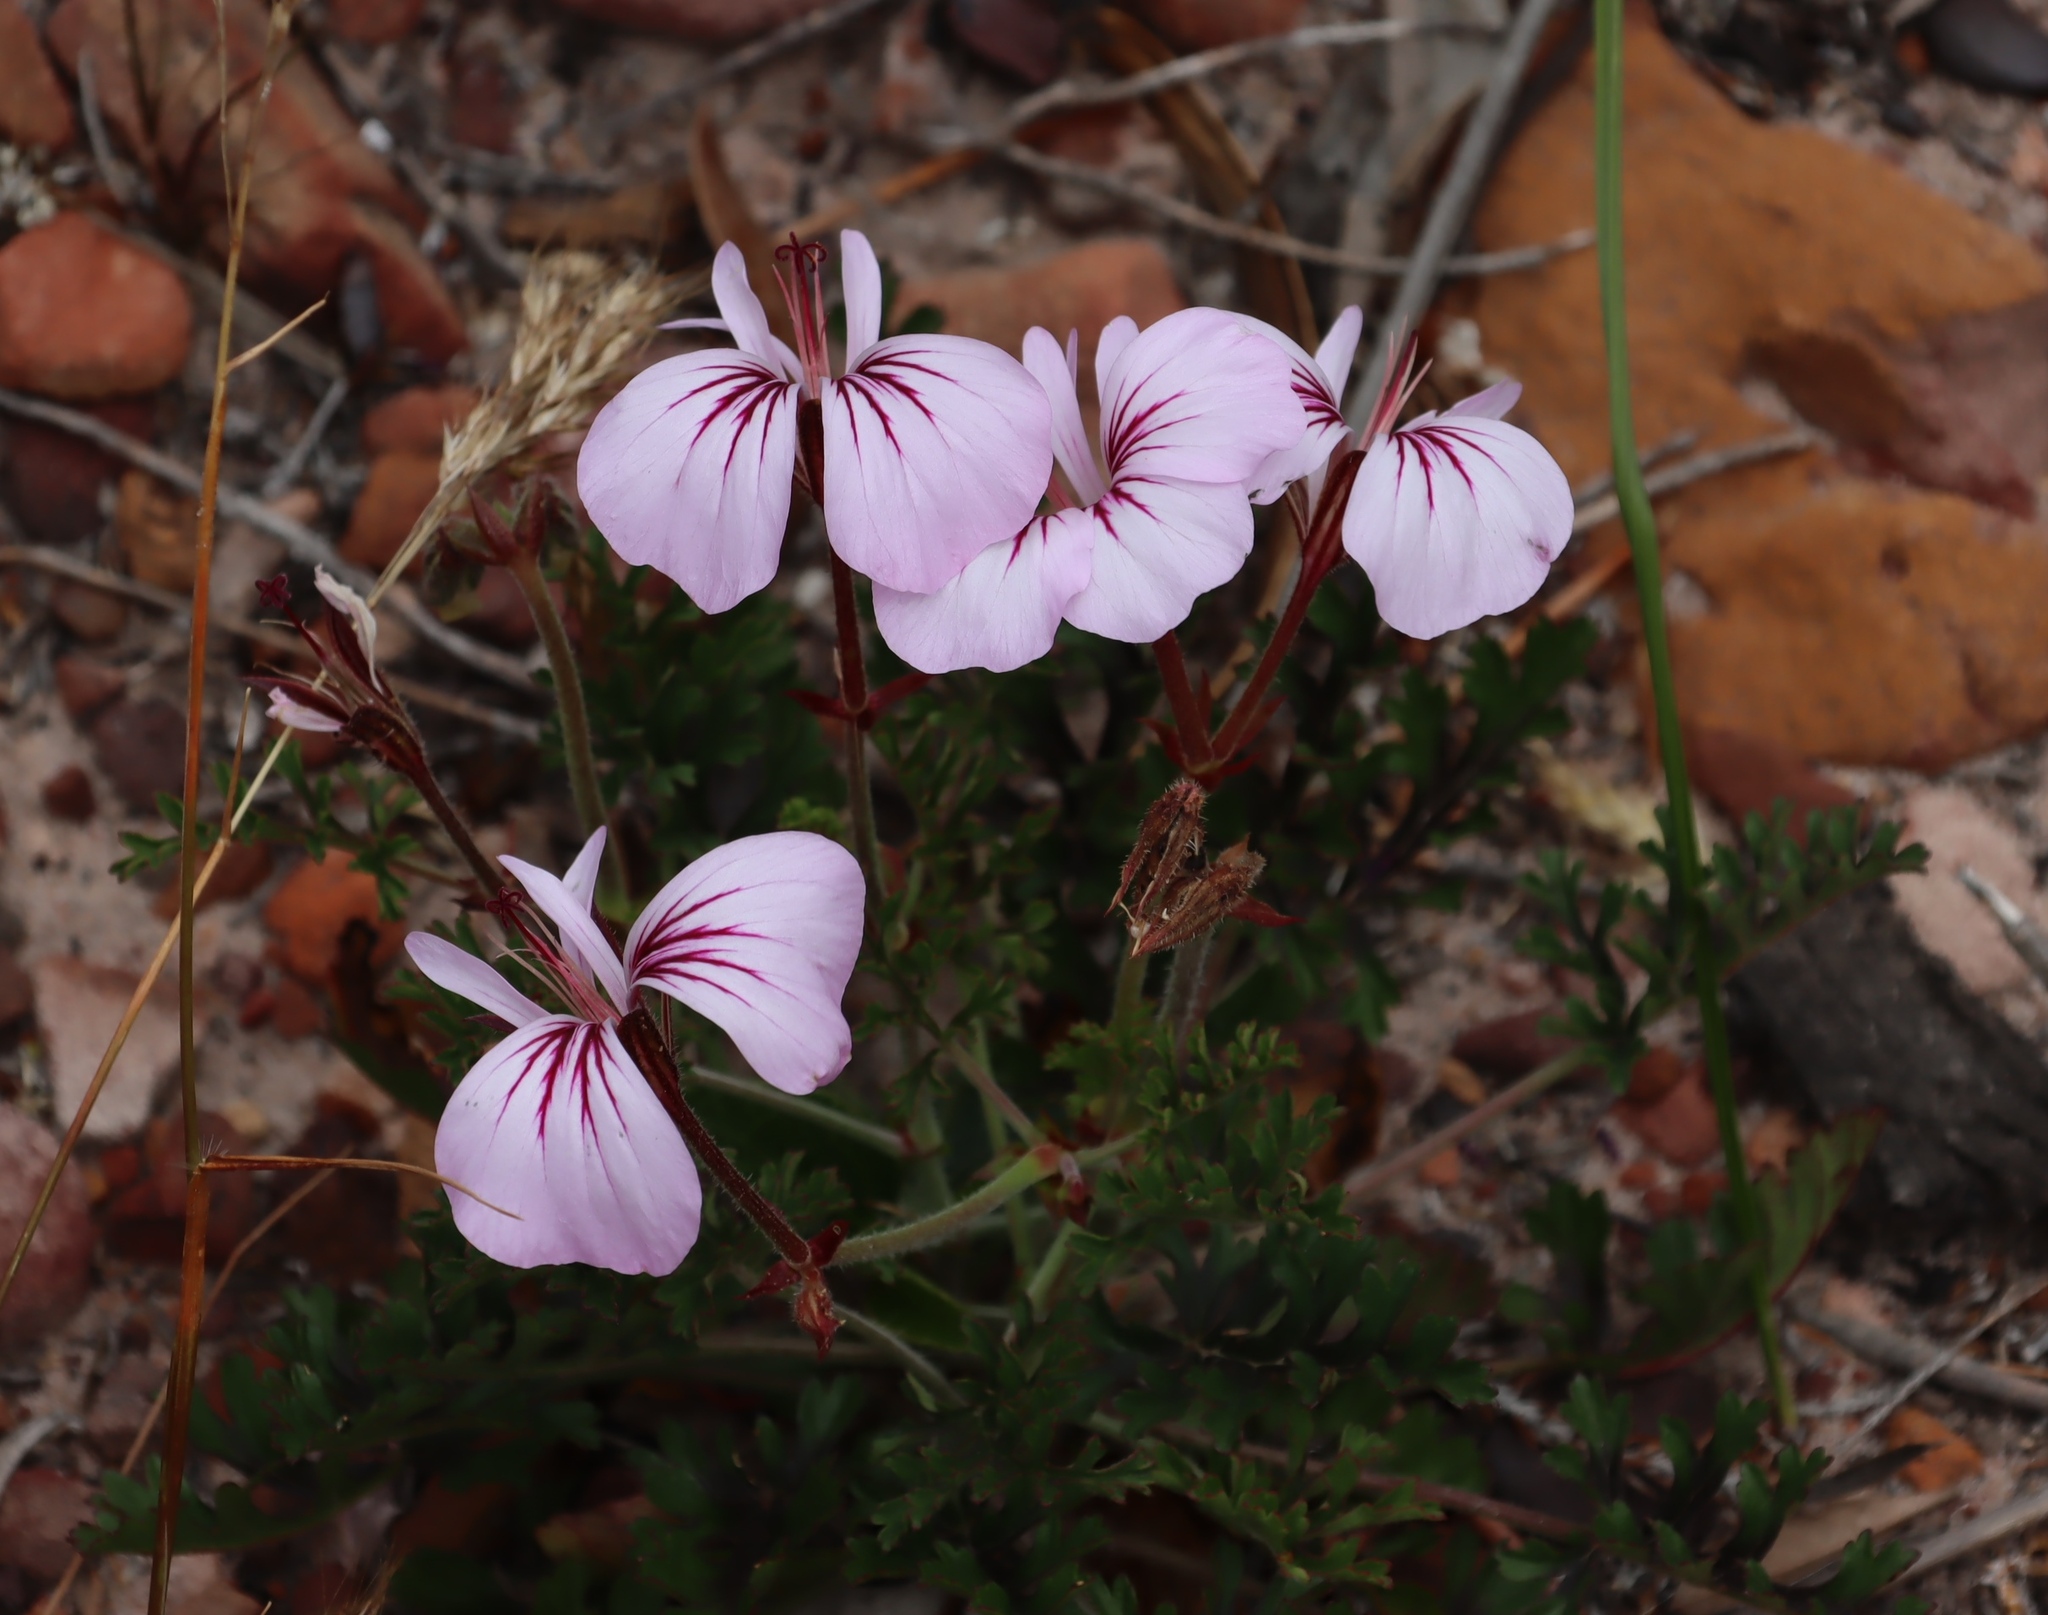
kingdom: Plantae
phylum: Tracheophyta
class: Magnoliopsida
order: Geraniales
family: Geraniaceae
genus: Pelargonium
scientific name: Pelargonium longicaule
